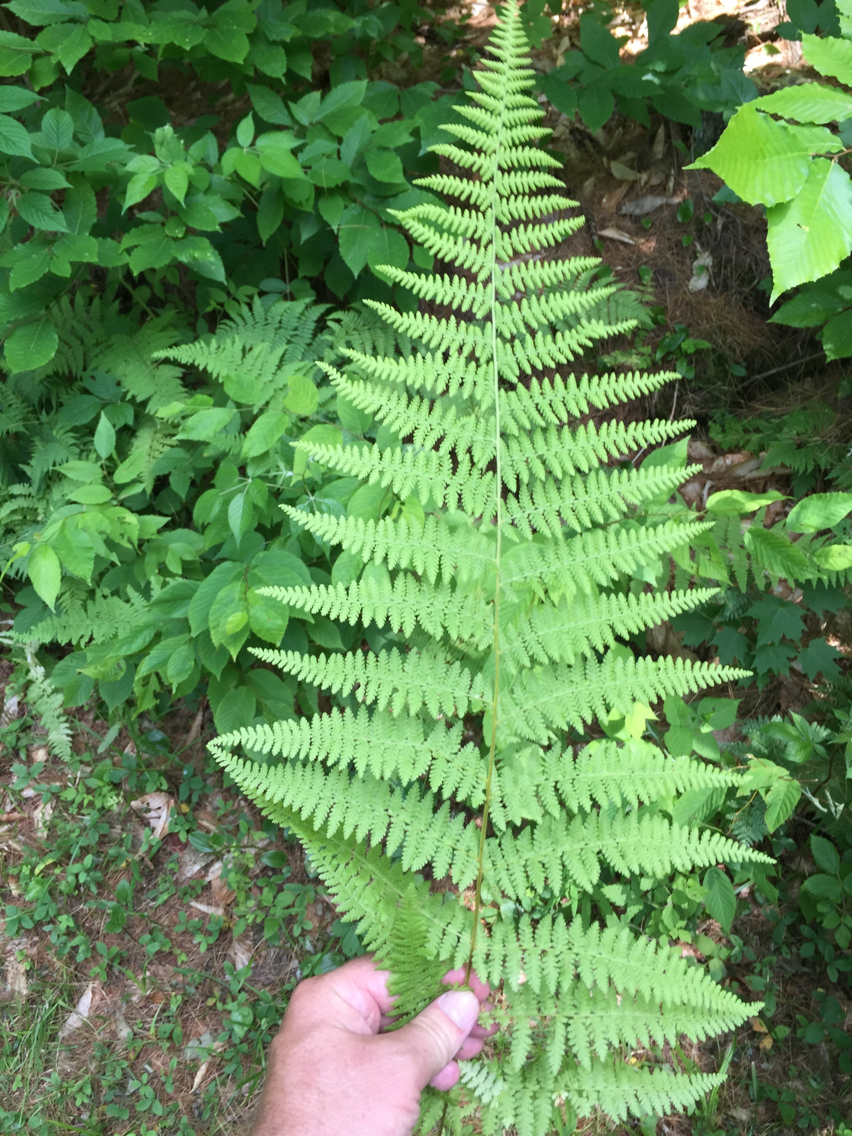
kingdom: Plantae
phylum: Tracheophyta
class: Polypodiopsida
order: Polypodiales
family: Dennstaedtiaceae
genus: Sitobolium
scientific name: Sitobolium punctilobum
